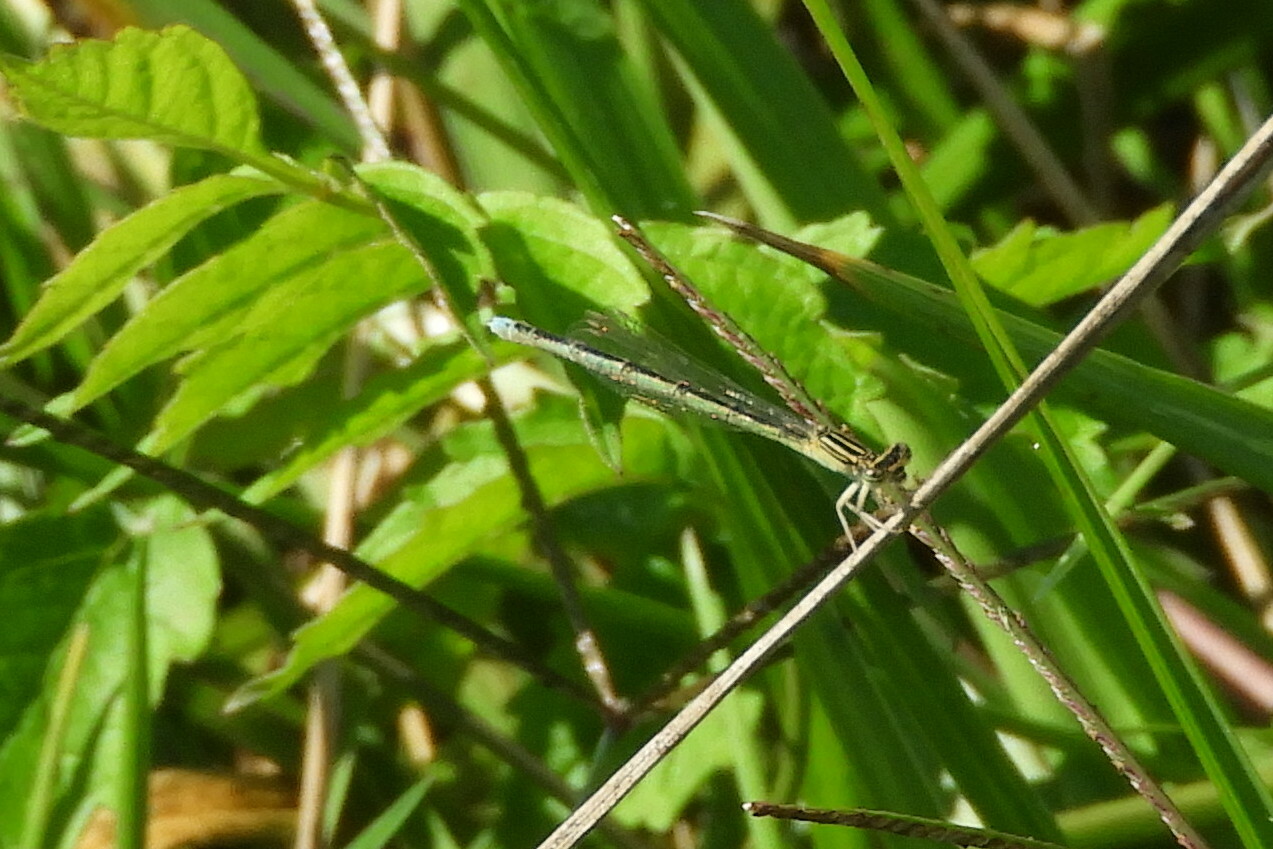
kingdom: Animalia
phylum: Arthropoda
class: Insecta
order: Odonata
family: Coenagrionidae
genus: Enallagma
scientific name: Enallagma basidens
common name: Double-striped bluet
